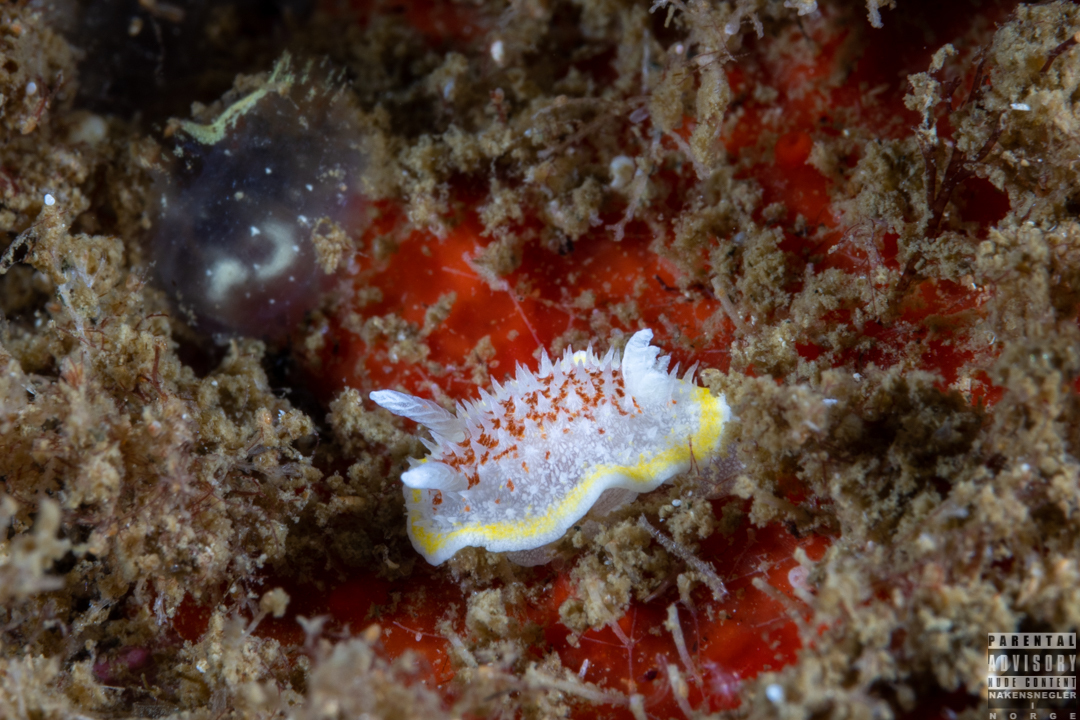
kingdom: Animalia
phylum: Mollusca
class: Gastropoda
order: Nudibranchia
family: Calycidorididae
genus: Diaphorodoris
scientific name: Diaphorodoris luteocincta
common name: Fried egg nudibranch
